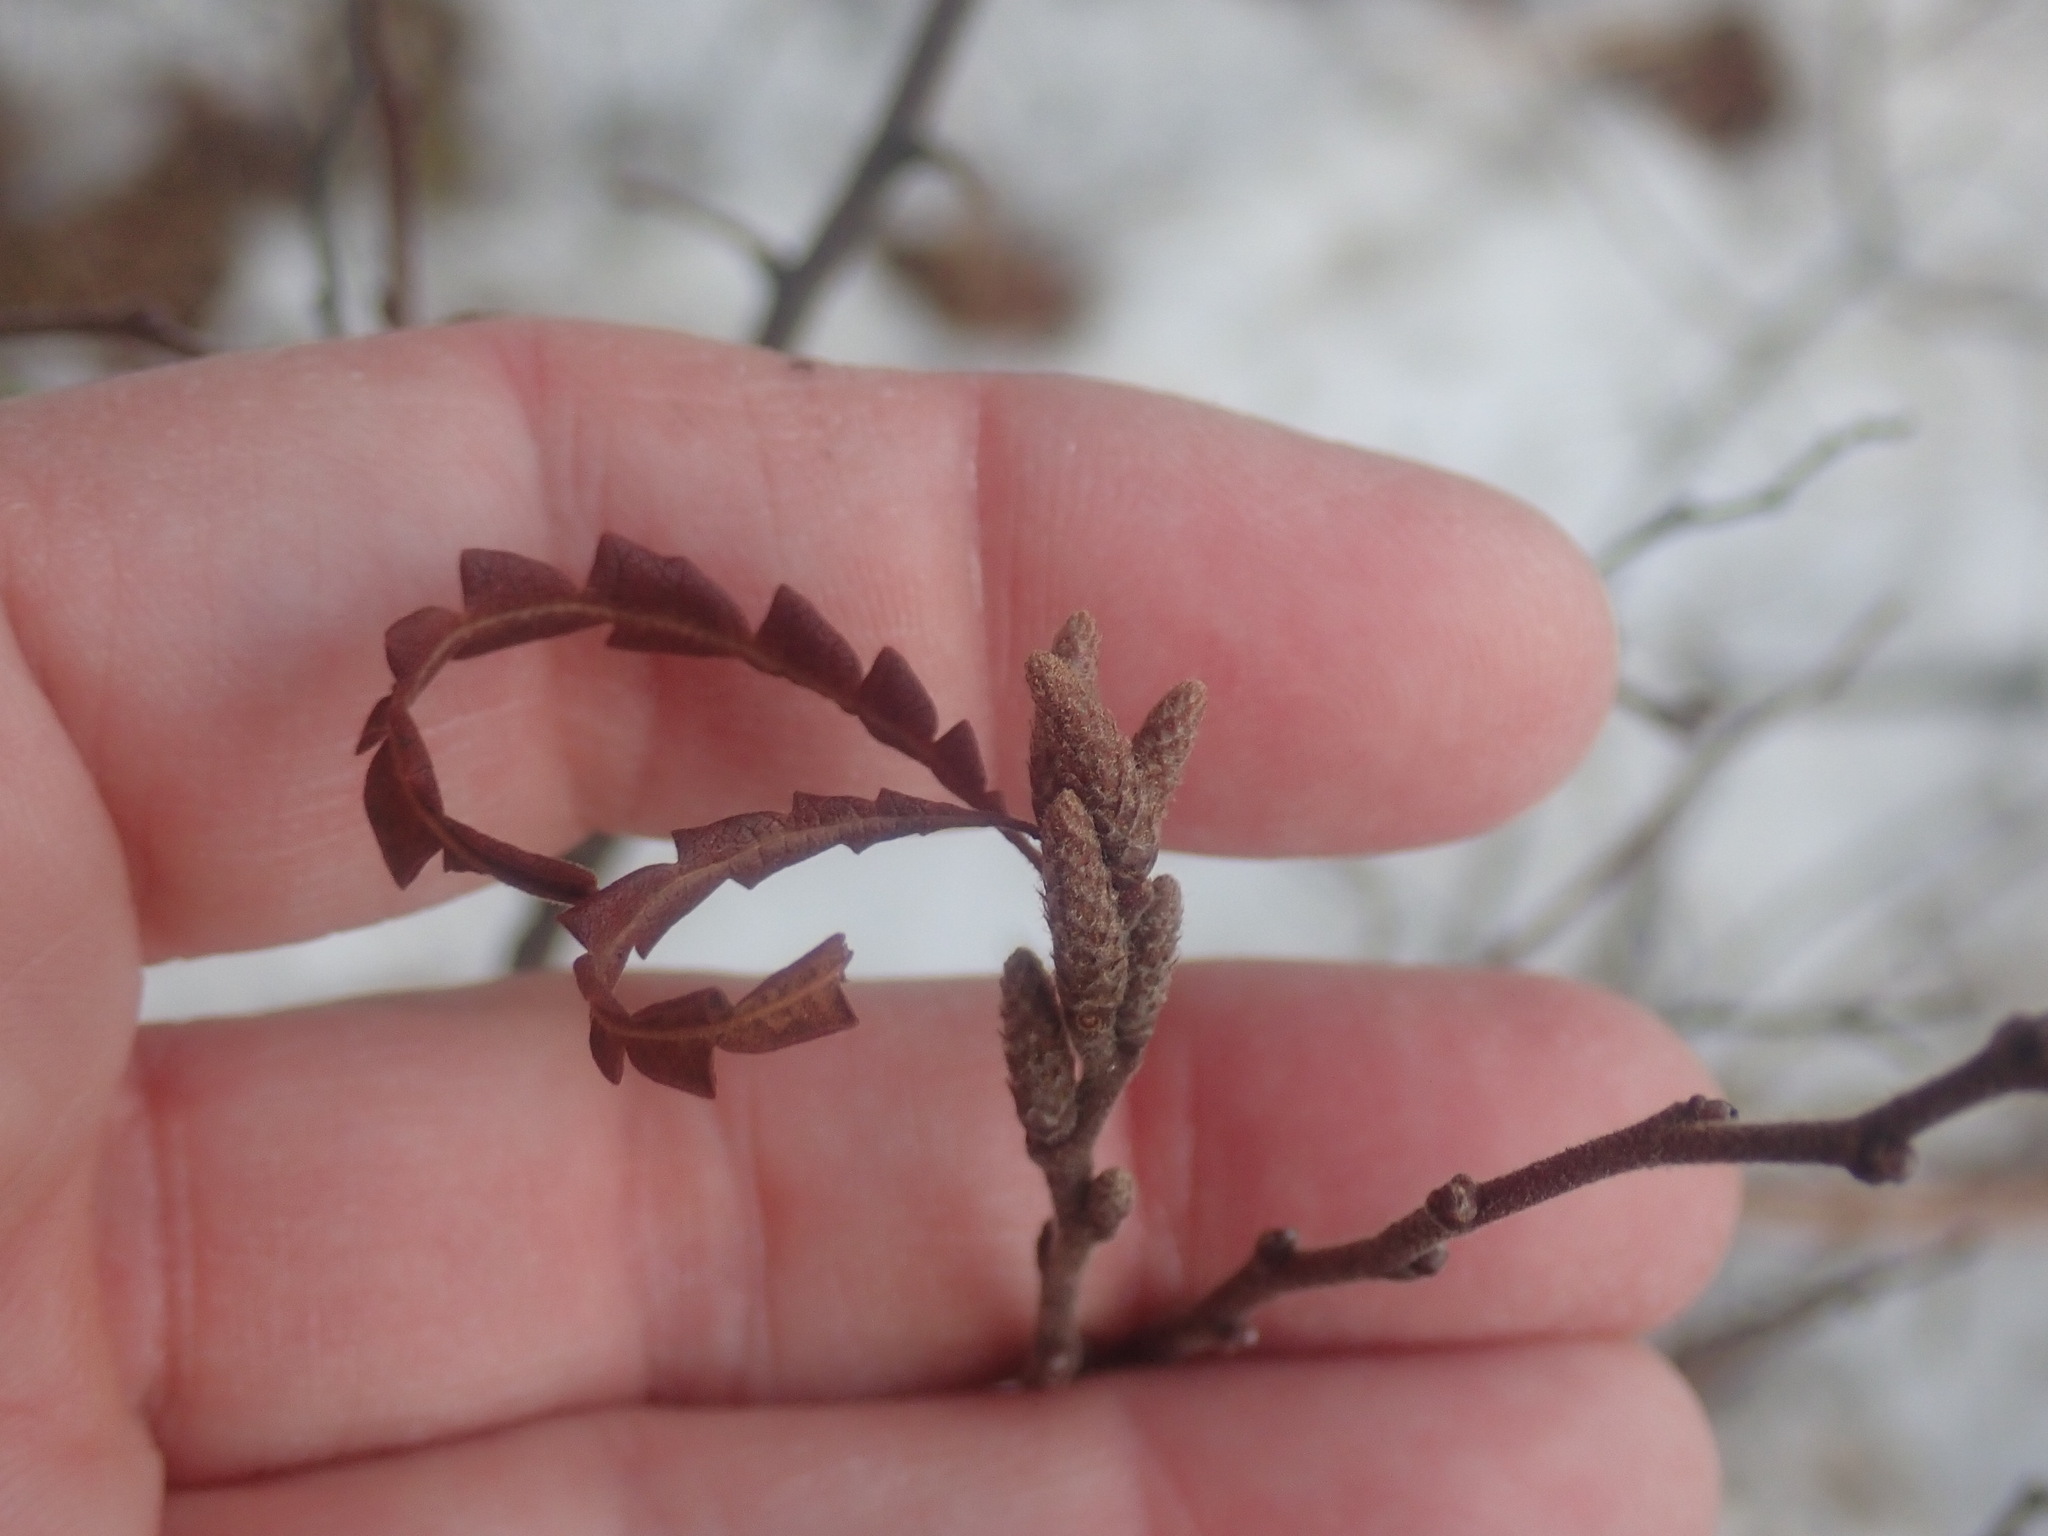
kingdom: Plantae
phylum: Tracheophyta
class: Magnoliopsida
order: Fagales
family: Myricaceae
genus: Comptonia
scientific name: Comptonia peregrina
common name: Sweet-fern
